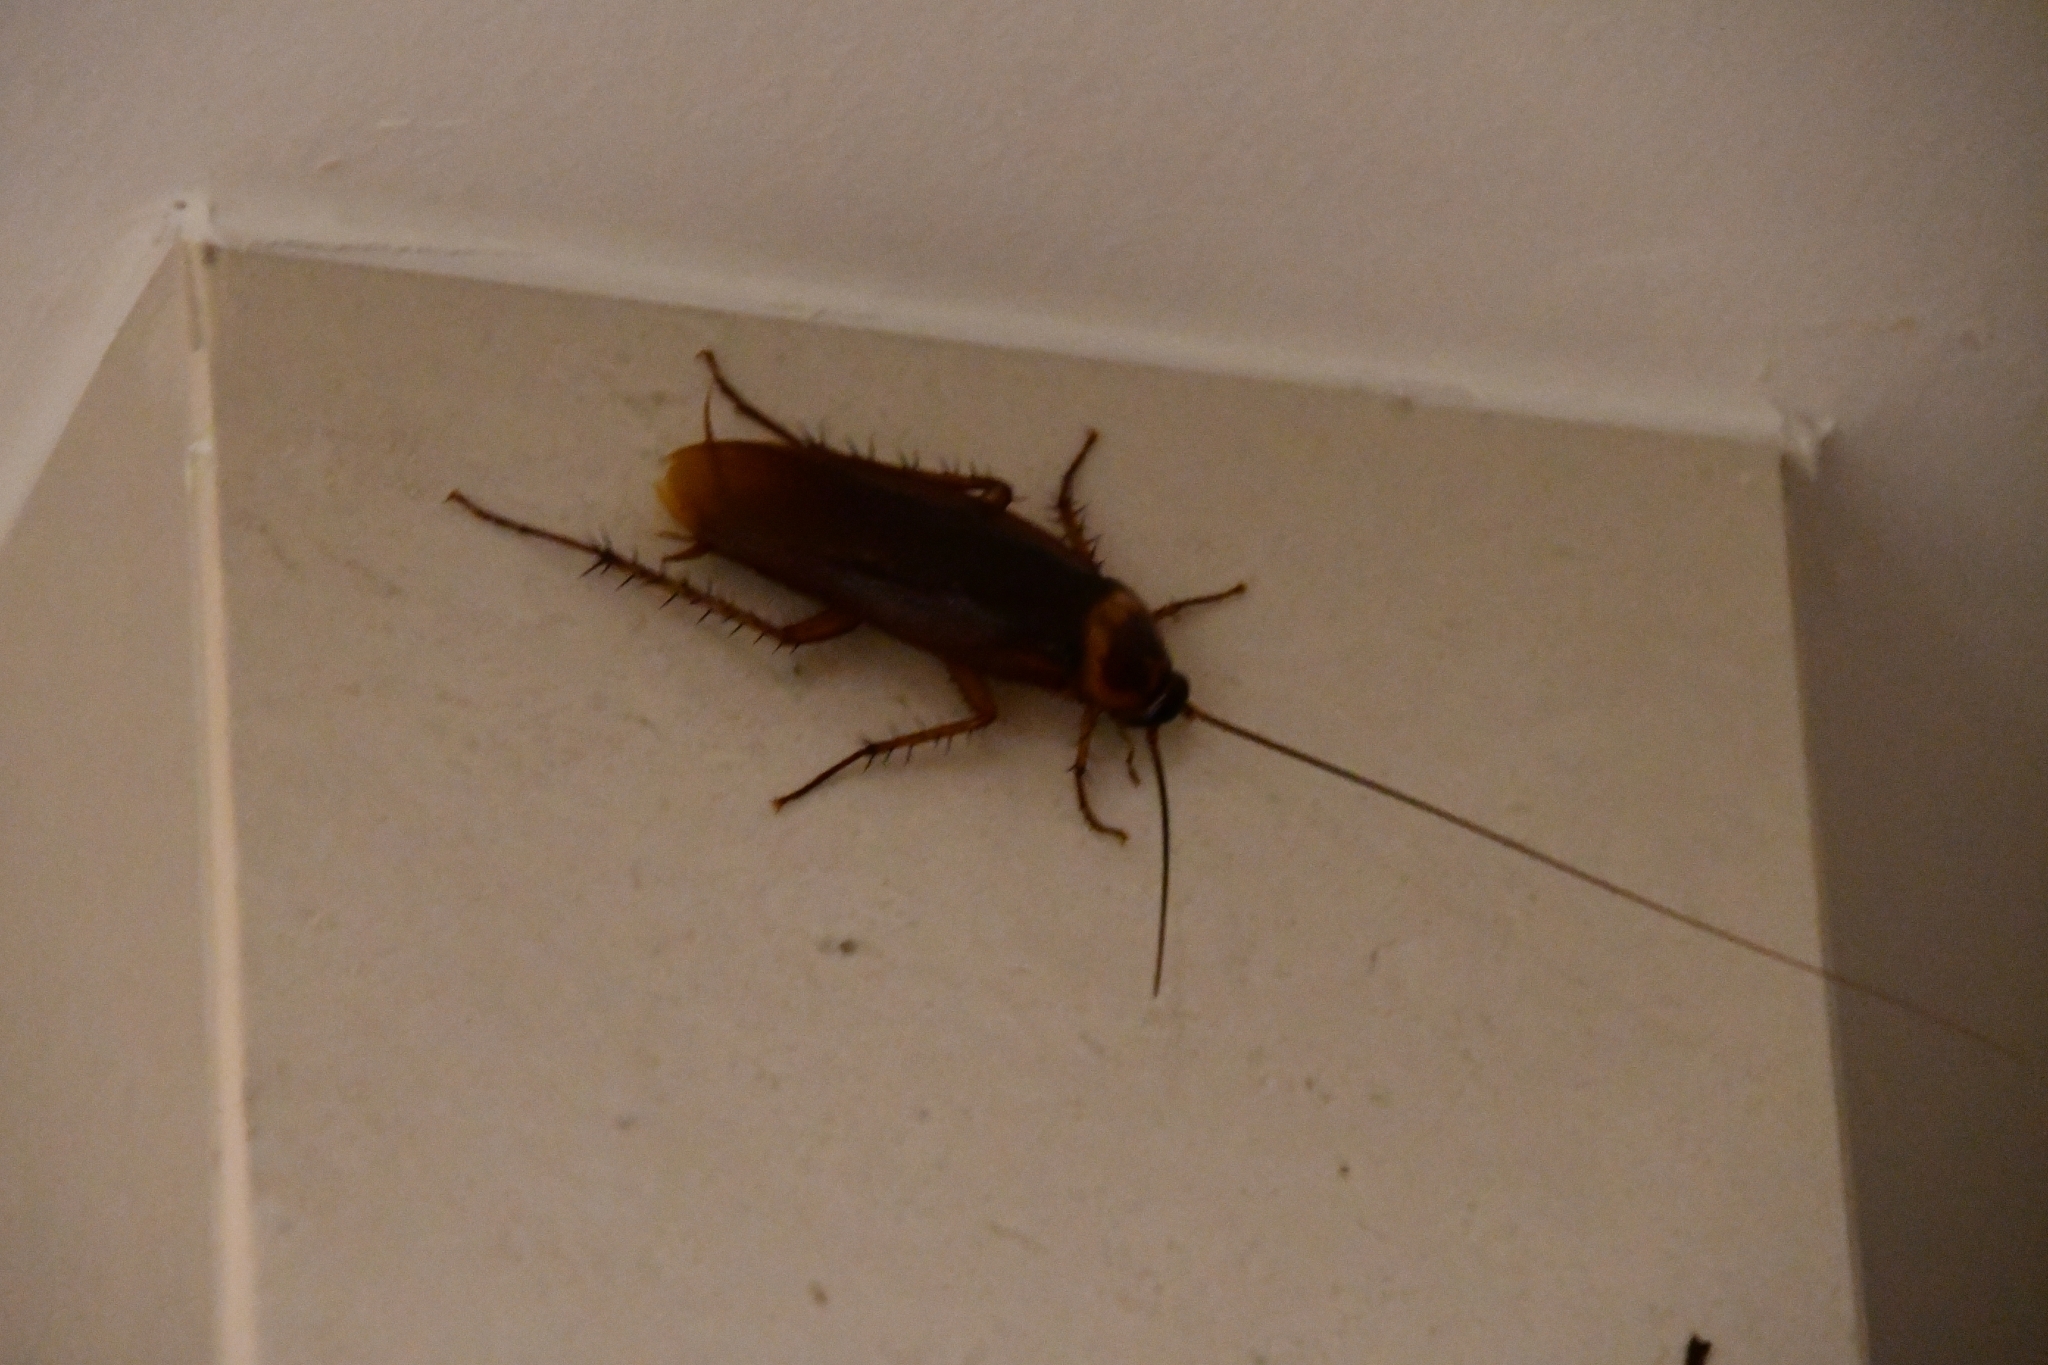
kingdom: Animalia
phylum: Arthropoda
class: Insecta
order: Blattodea
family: Blattidae
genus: Periplaneta
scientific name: Periplaneta americana
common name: American cockroach
